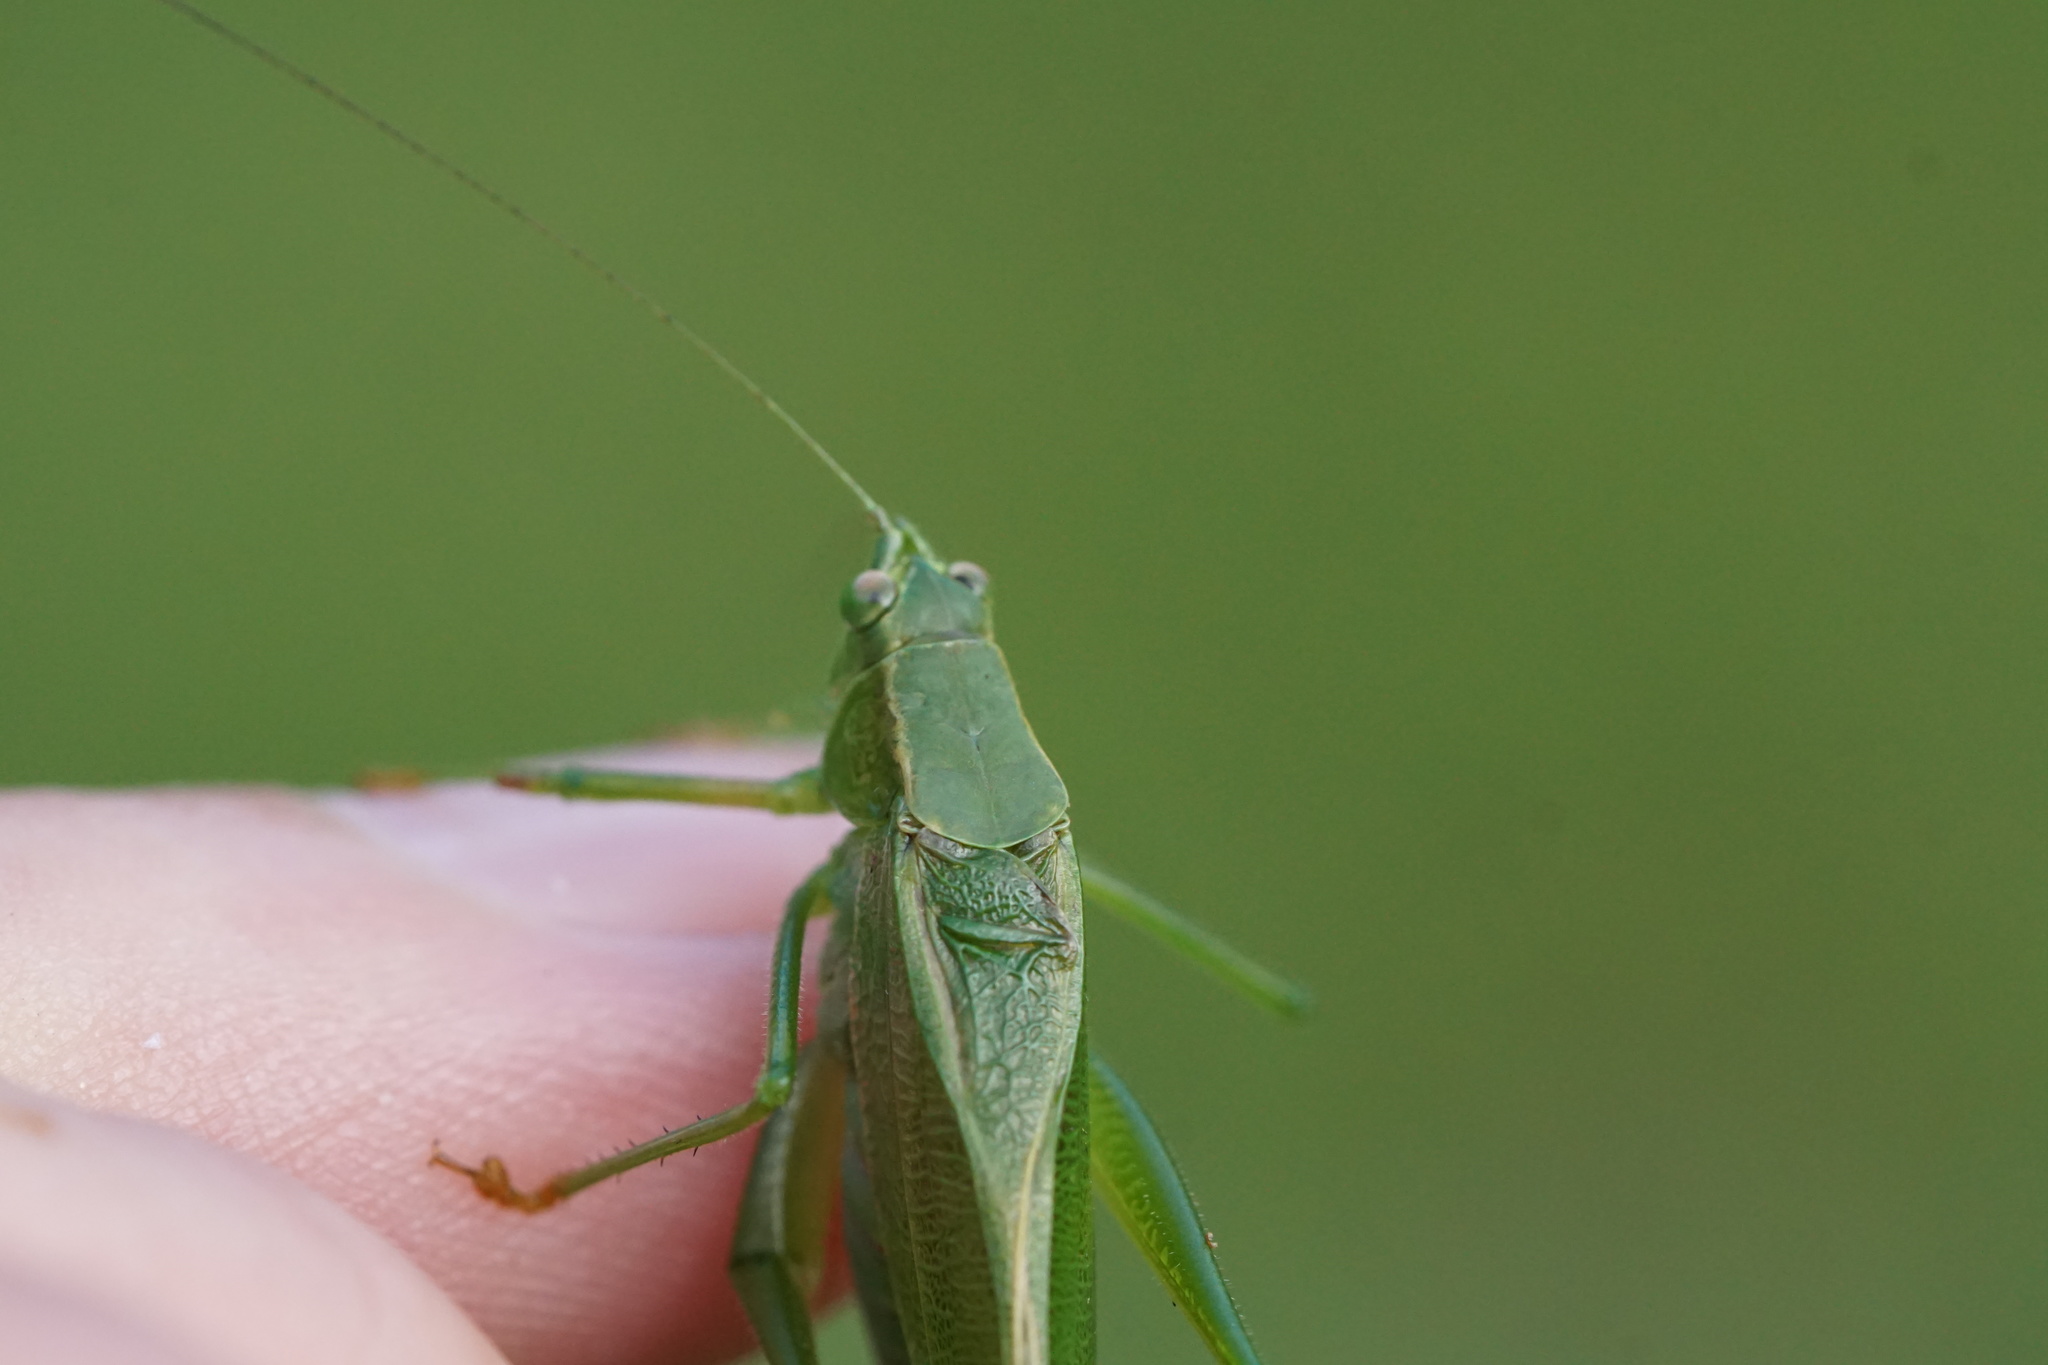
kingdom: Animalia
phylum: Arthropoda
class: Insecta
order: Orthoptera
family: Tettigoniidae
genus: Scudderia
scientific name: Scudderia furcata
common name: Fork-tailed bush katydid
